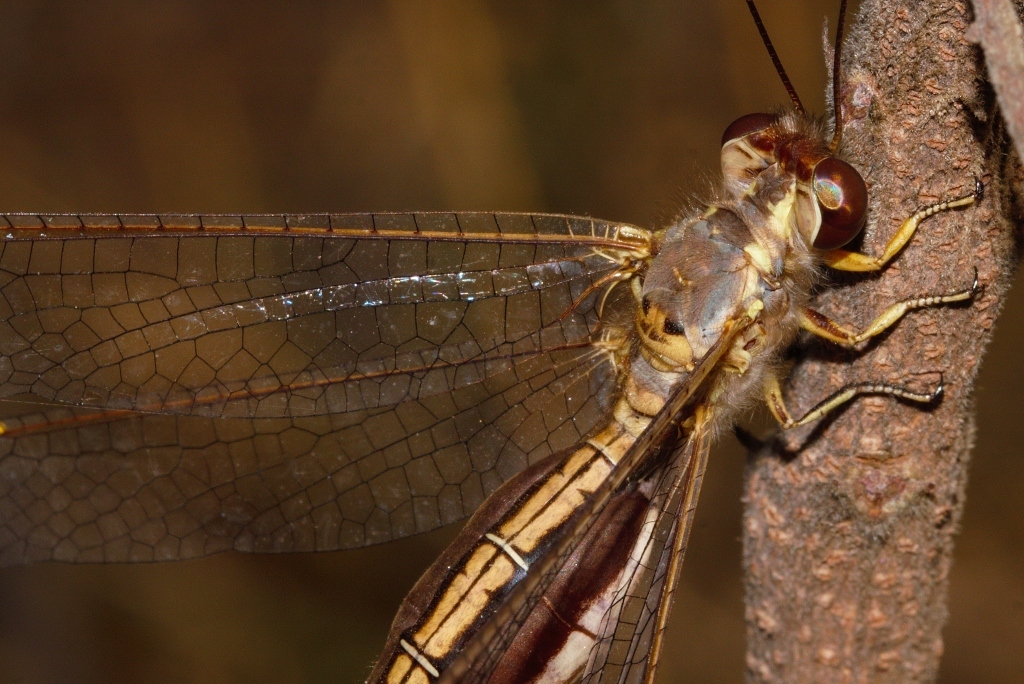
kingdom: Animalia
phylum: Arthropoda
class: Insecta
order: Neuroptera
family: Ascalaphidae
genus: Eremoides
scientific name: Eremoides bicristatus
